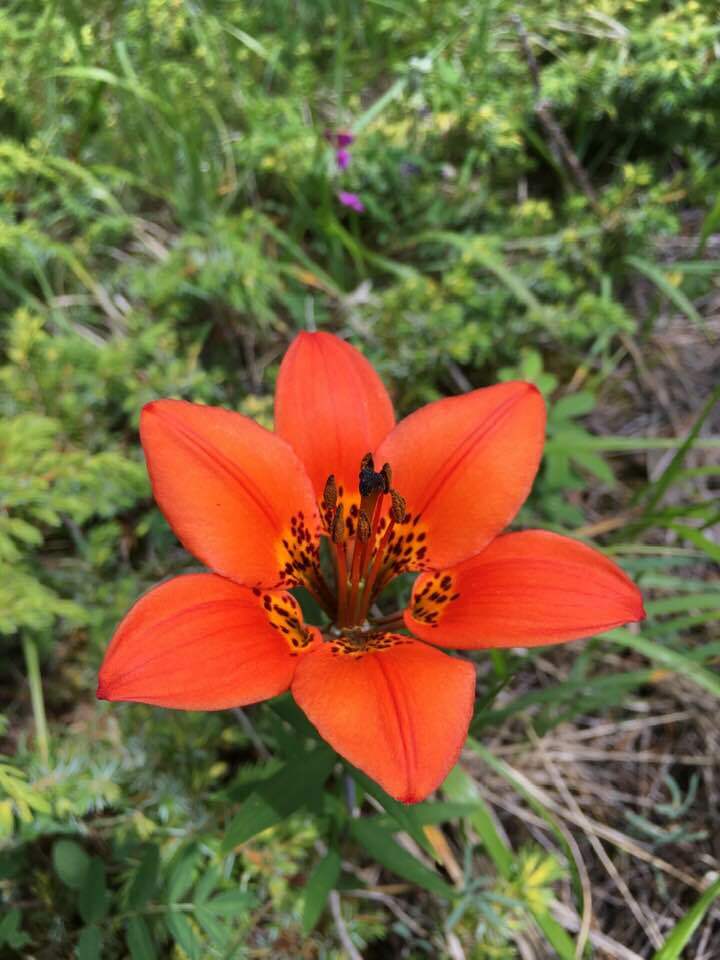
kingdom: Plantae
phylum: Tracheophyta
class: Liliopsida
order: Liliales
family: Liliaceae
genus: Lilium
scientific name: Lilium philadelphicum
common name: Red lily
